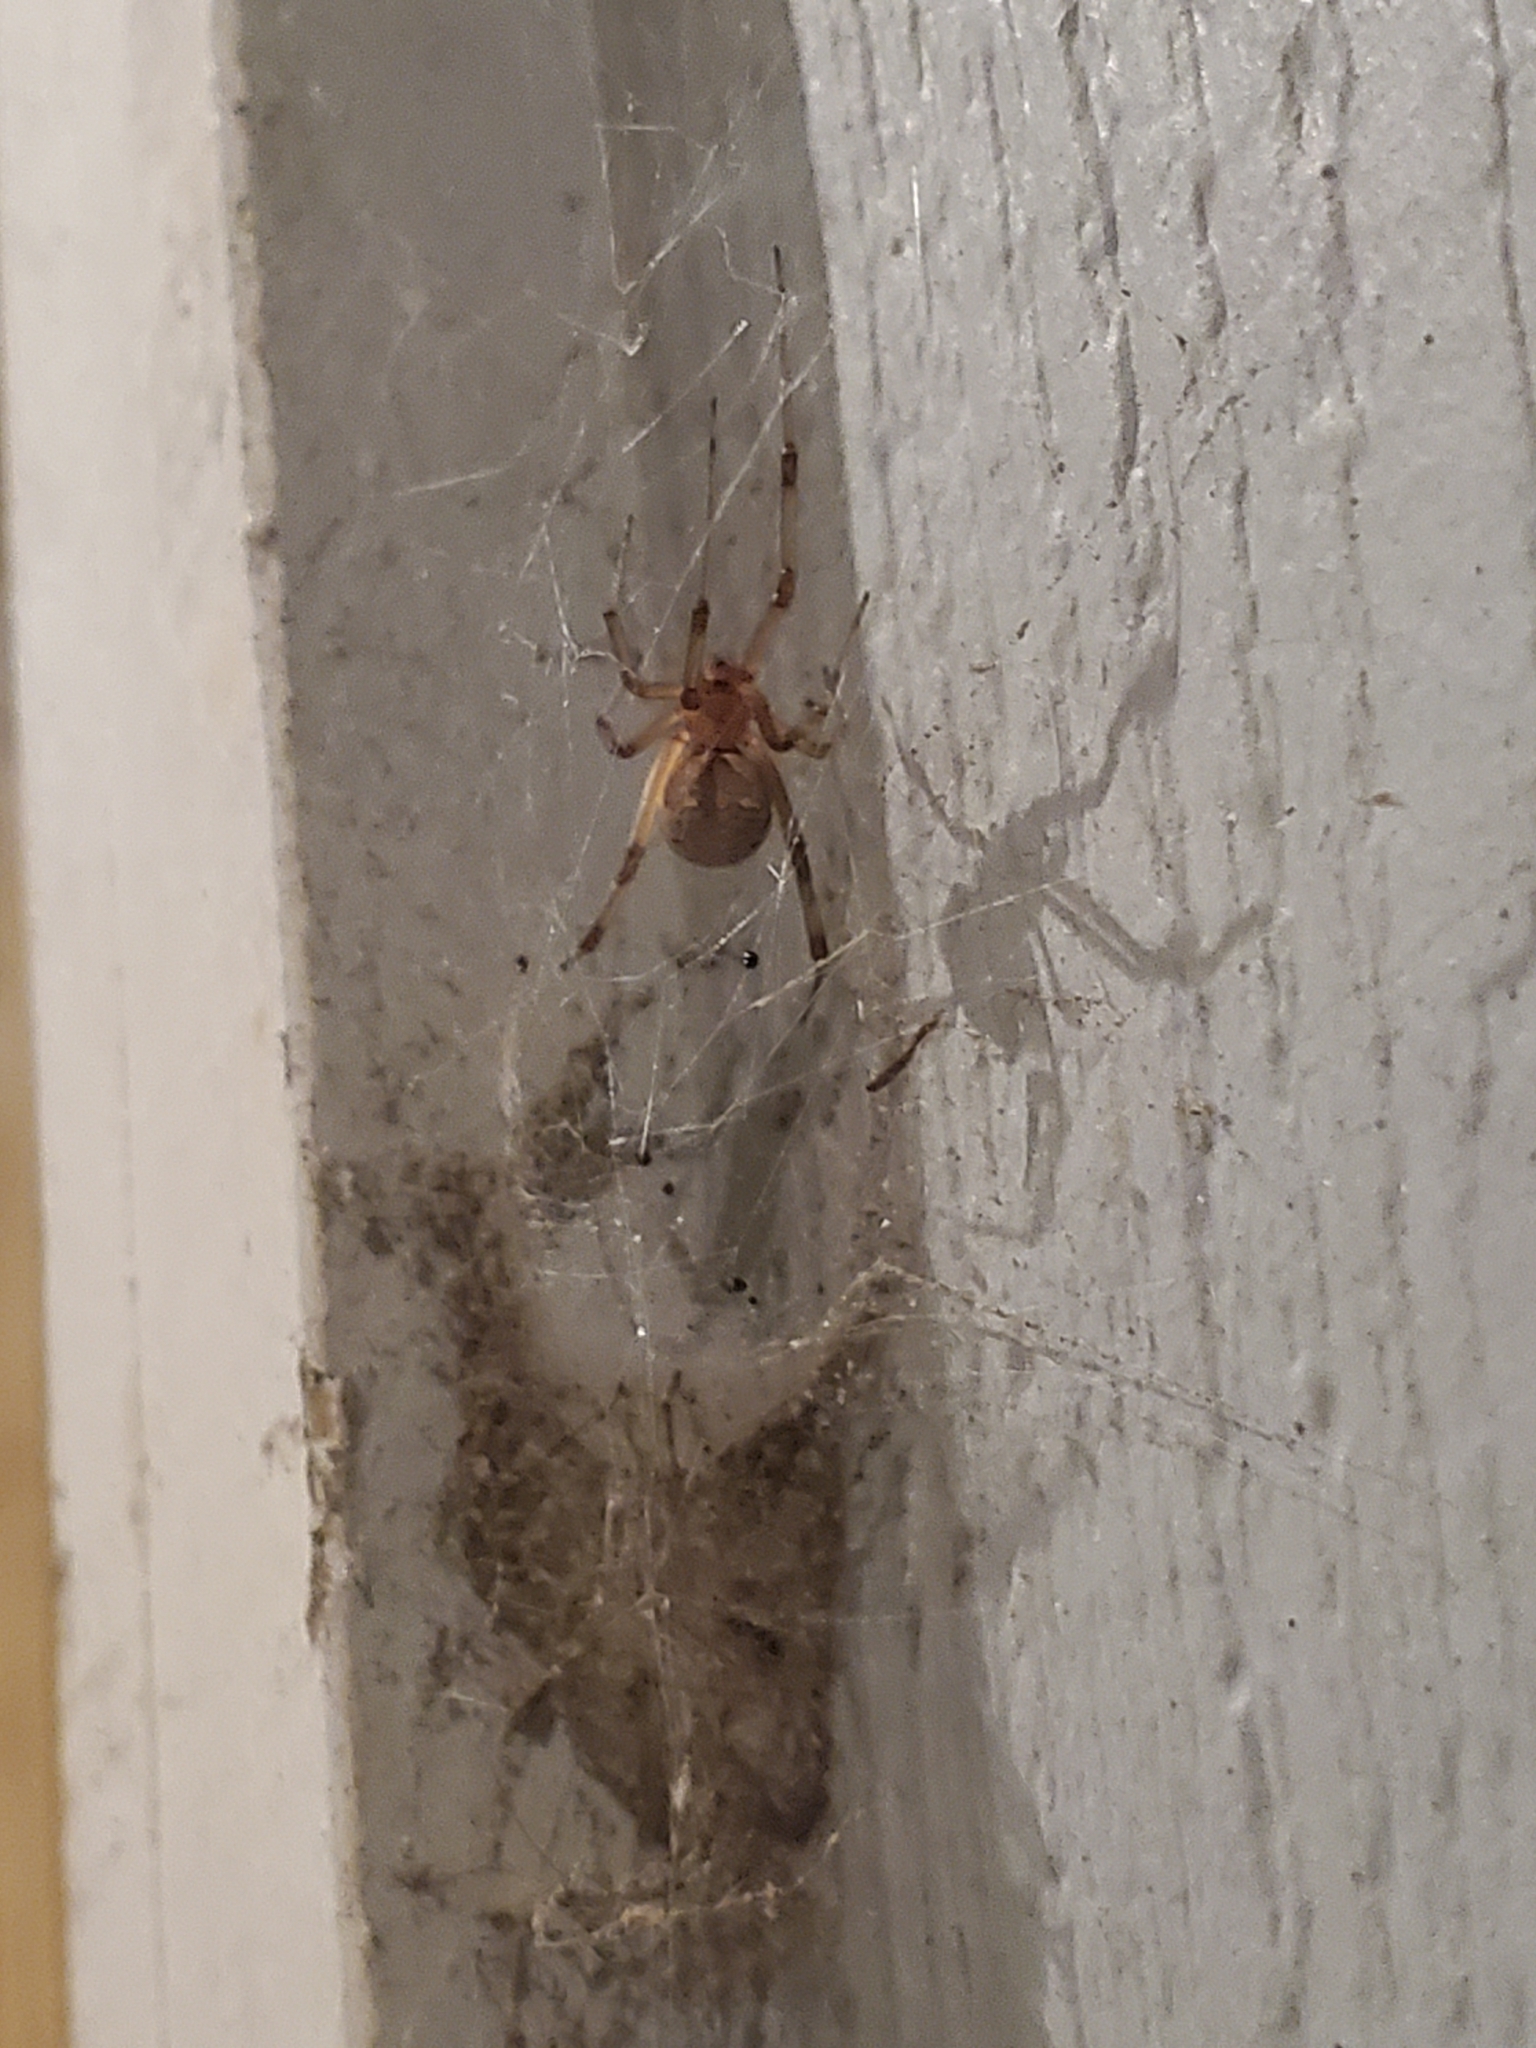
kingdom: Animalia
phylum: Arthropoda
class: Arachnida
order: Araneae
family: Theridiidae
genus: Latrodectus
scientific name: Latrodectus geometricus
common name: Brown widow spider
